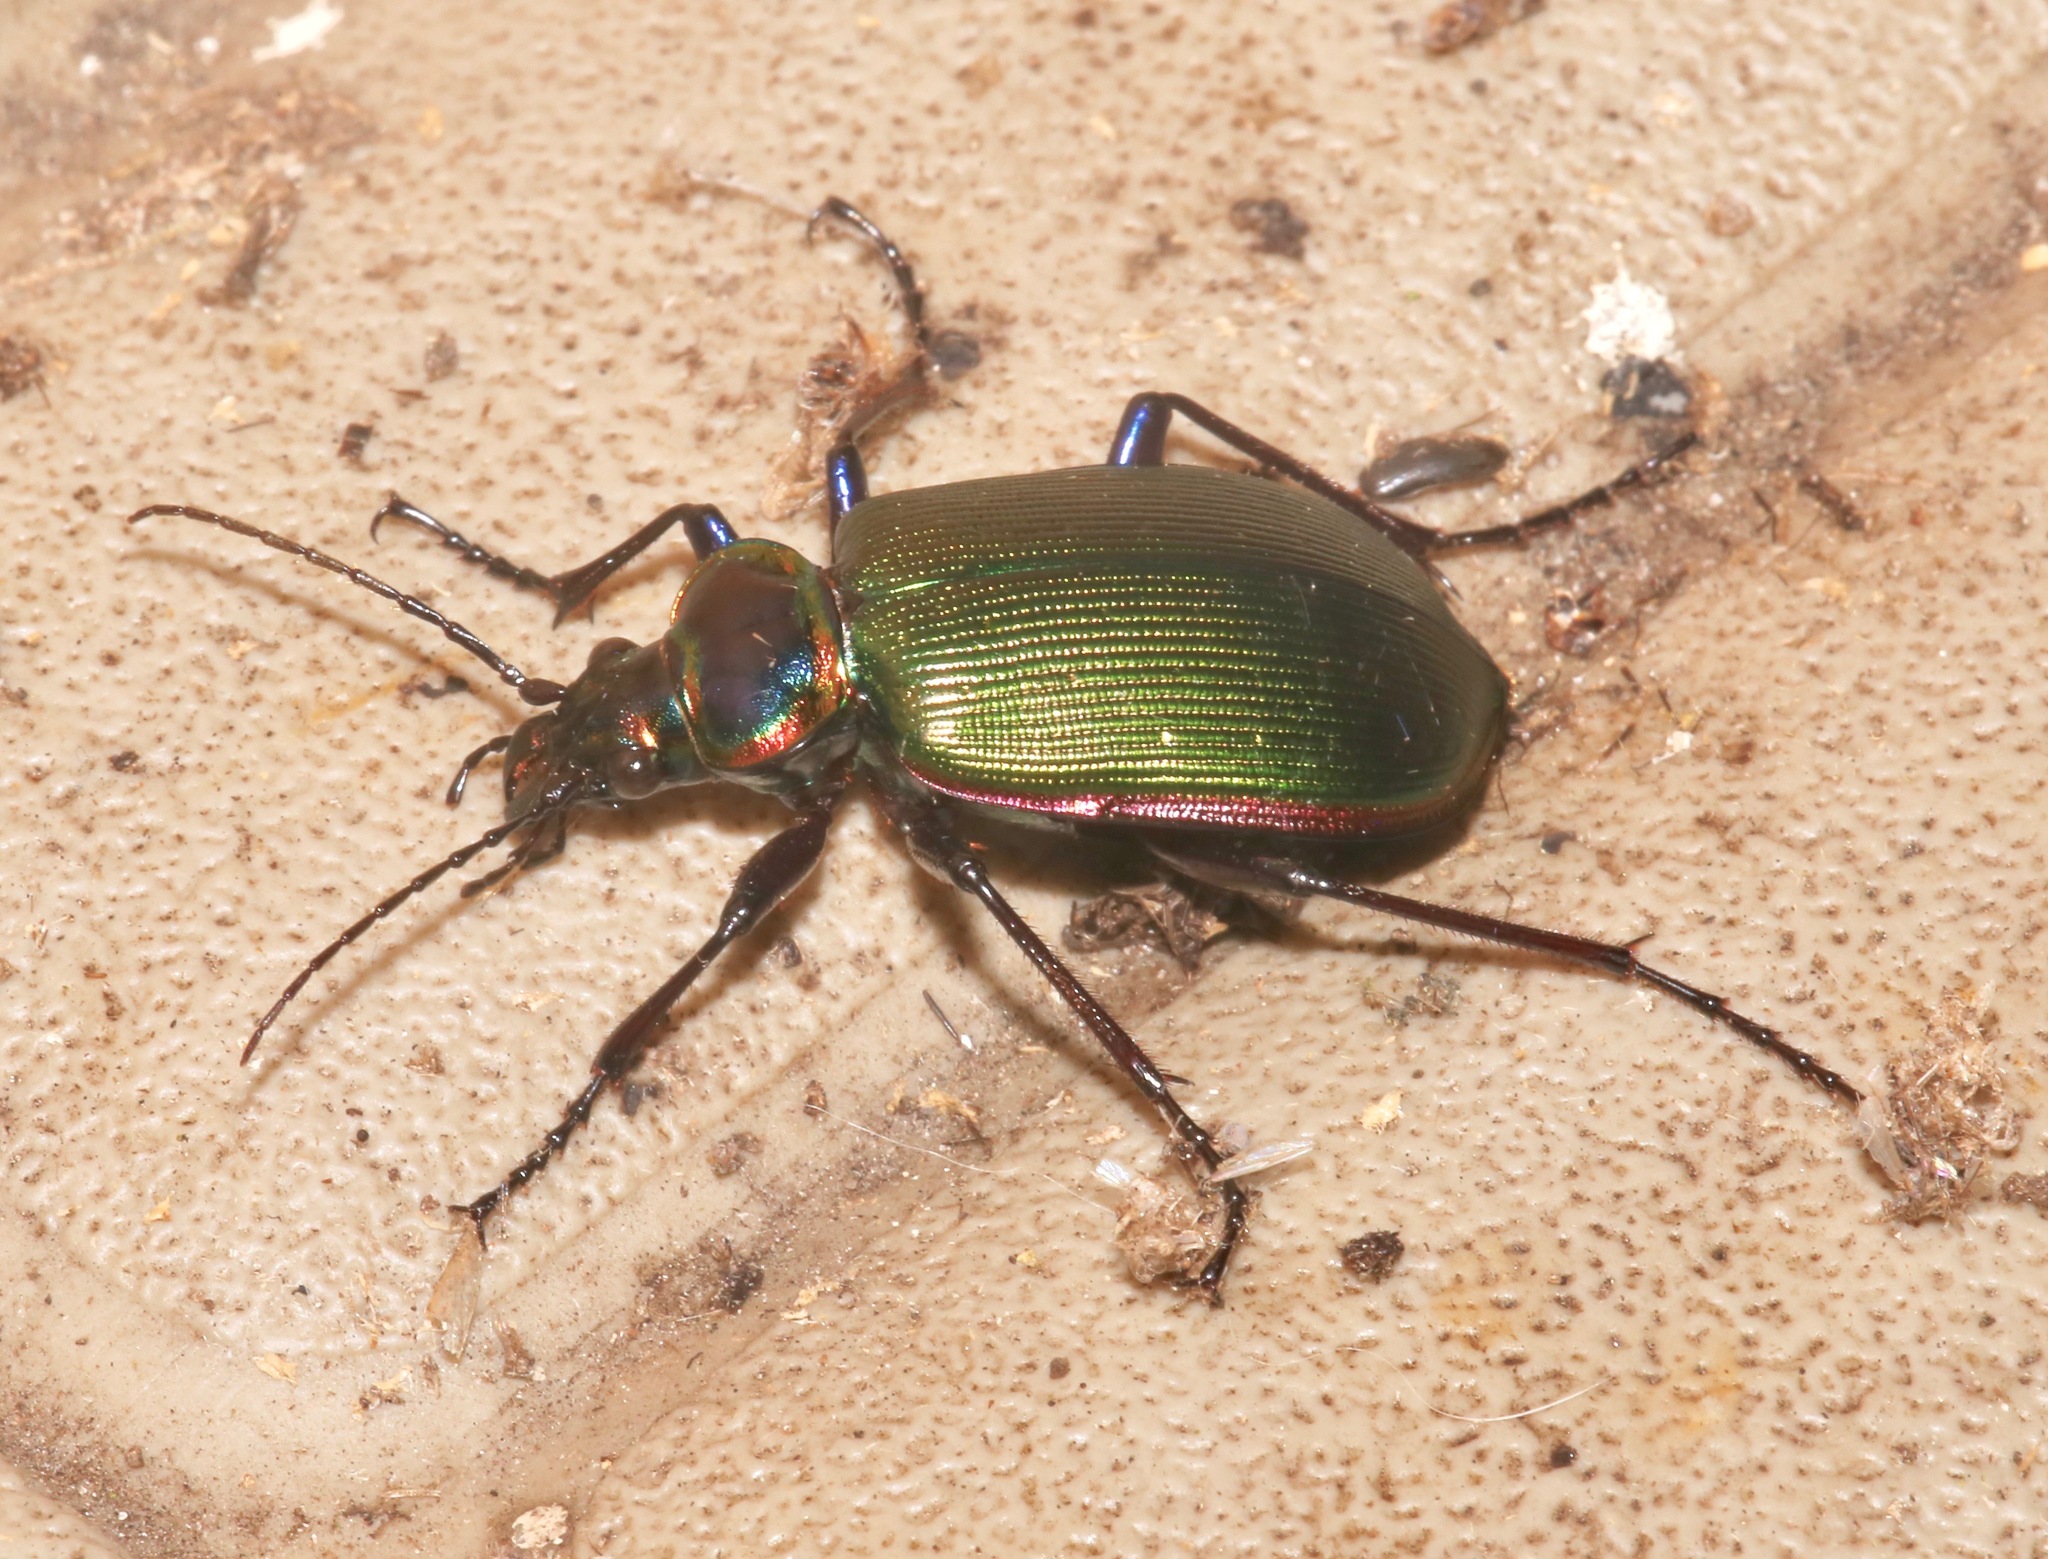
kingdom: Animalia
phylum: Arthropoda
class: Insecta
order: Coleoptera
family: Carabidae
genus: Calosoma
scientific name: Calosoma scrutator
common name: Fiery searcher beetle
